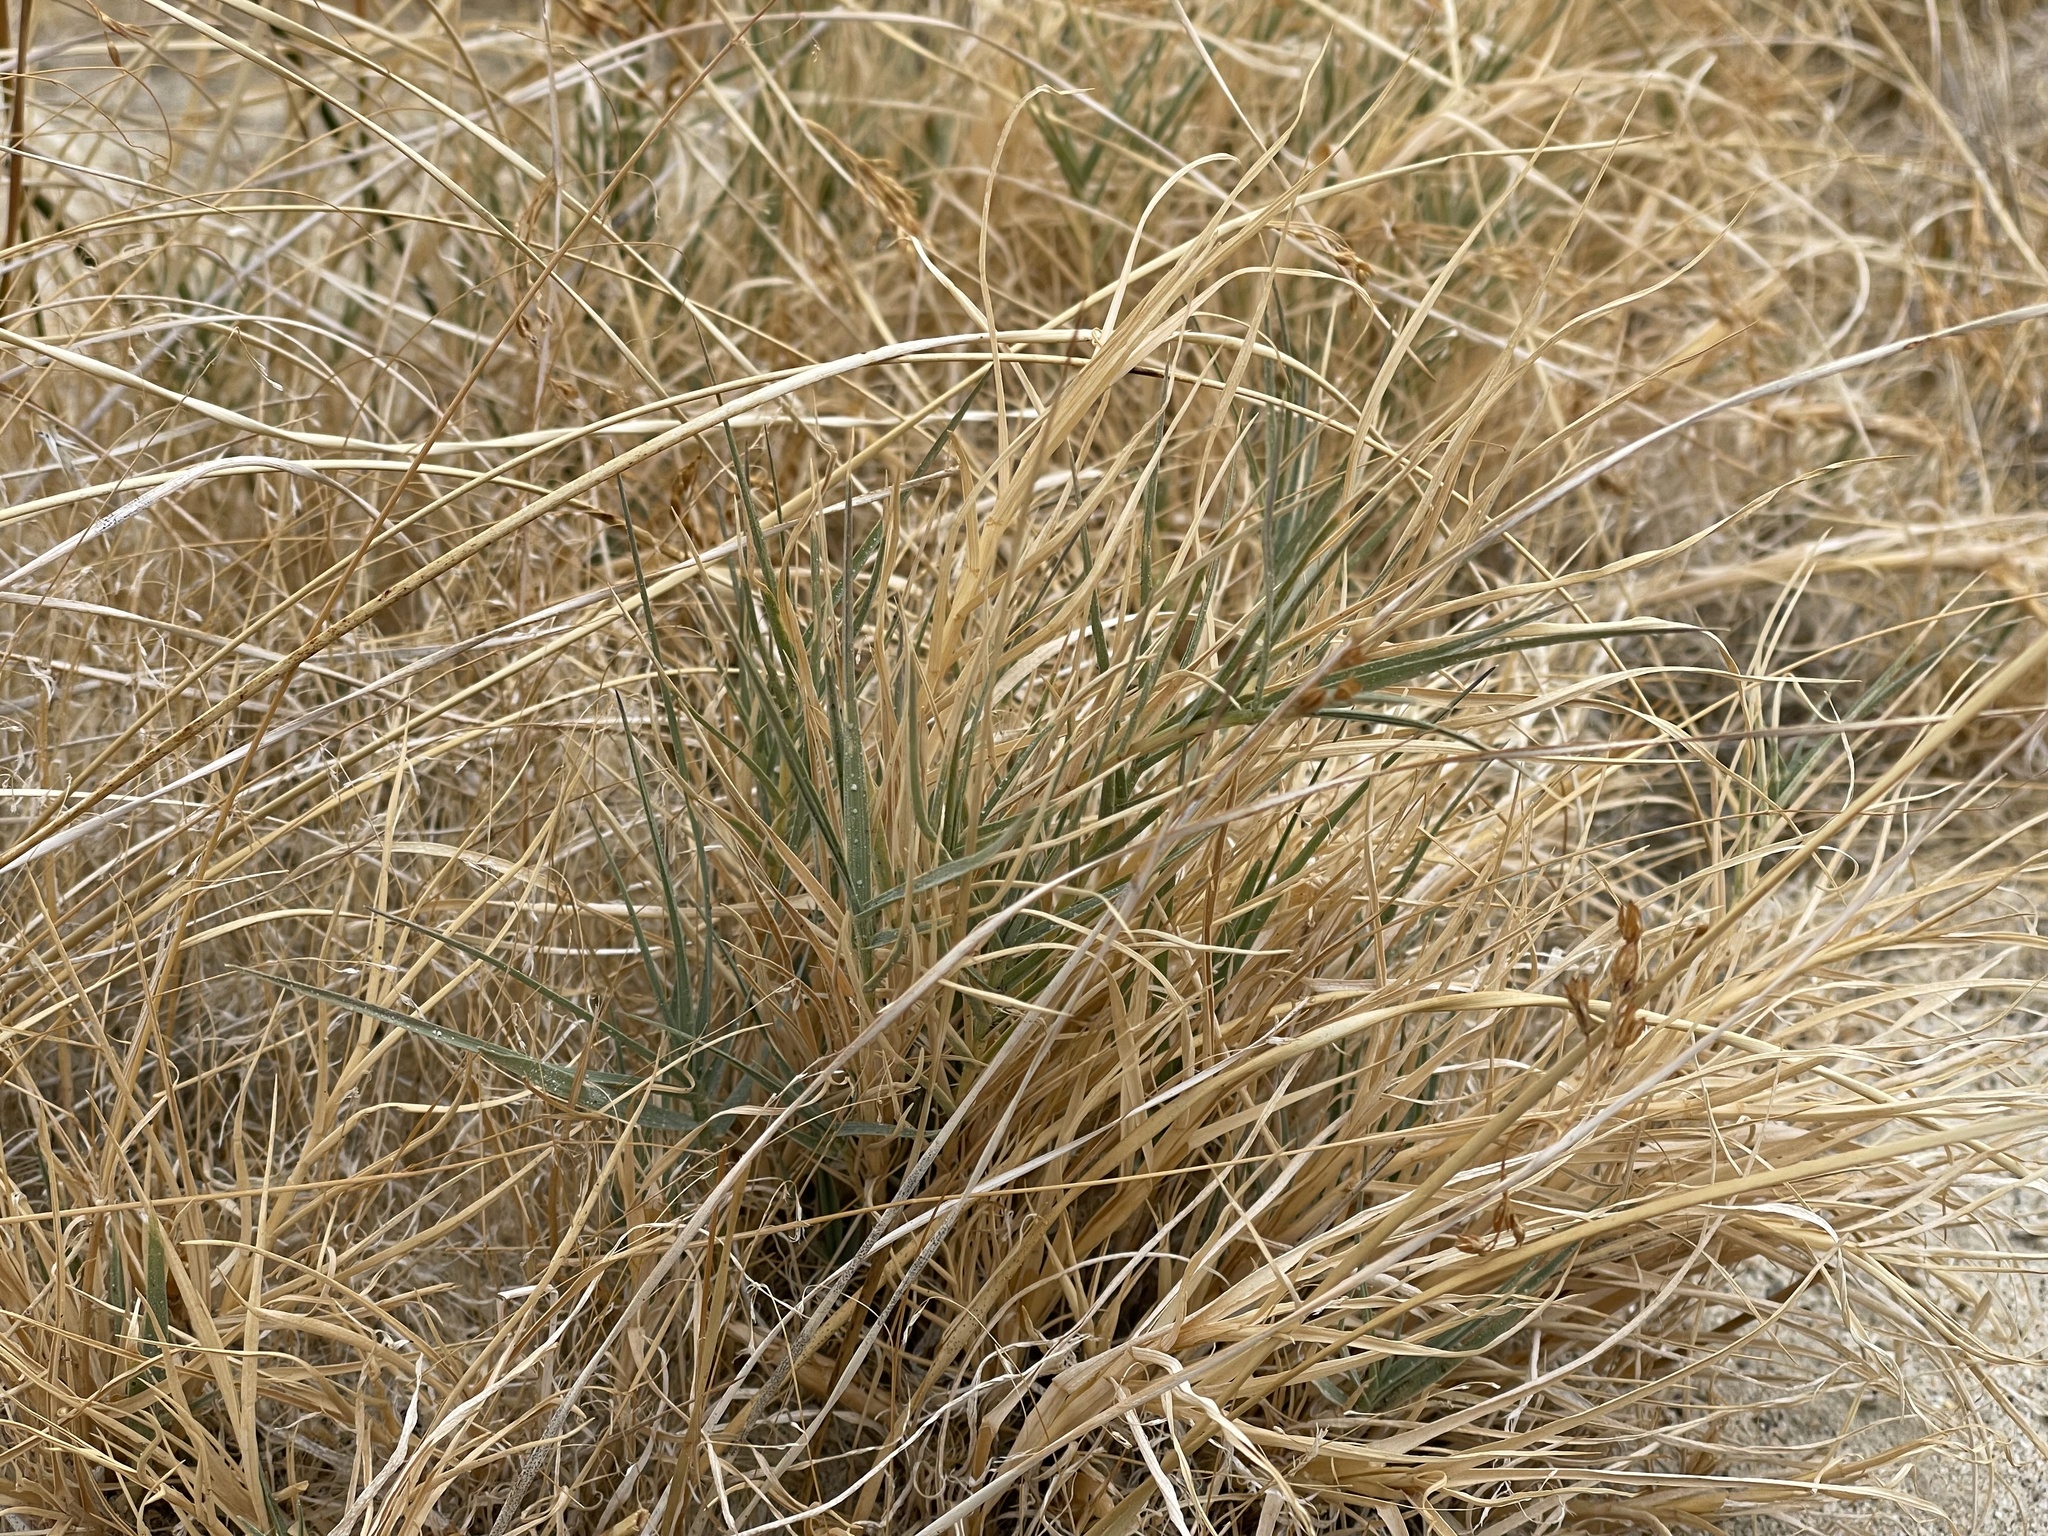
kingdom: Plantae
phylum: Tracheophyta
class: Liliopsida
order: Poales
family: Poaceae
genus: Distichlis
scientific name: Distichlis spicata
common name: Saltgrass
